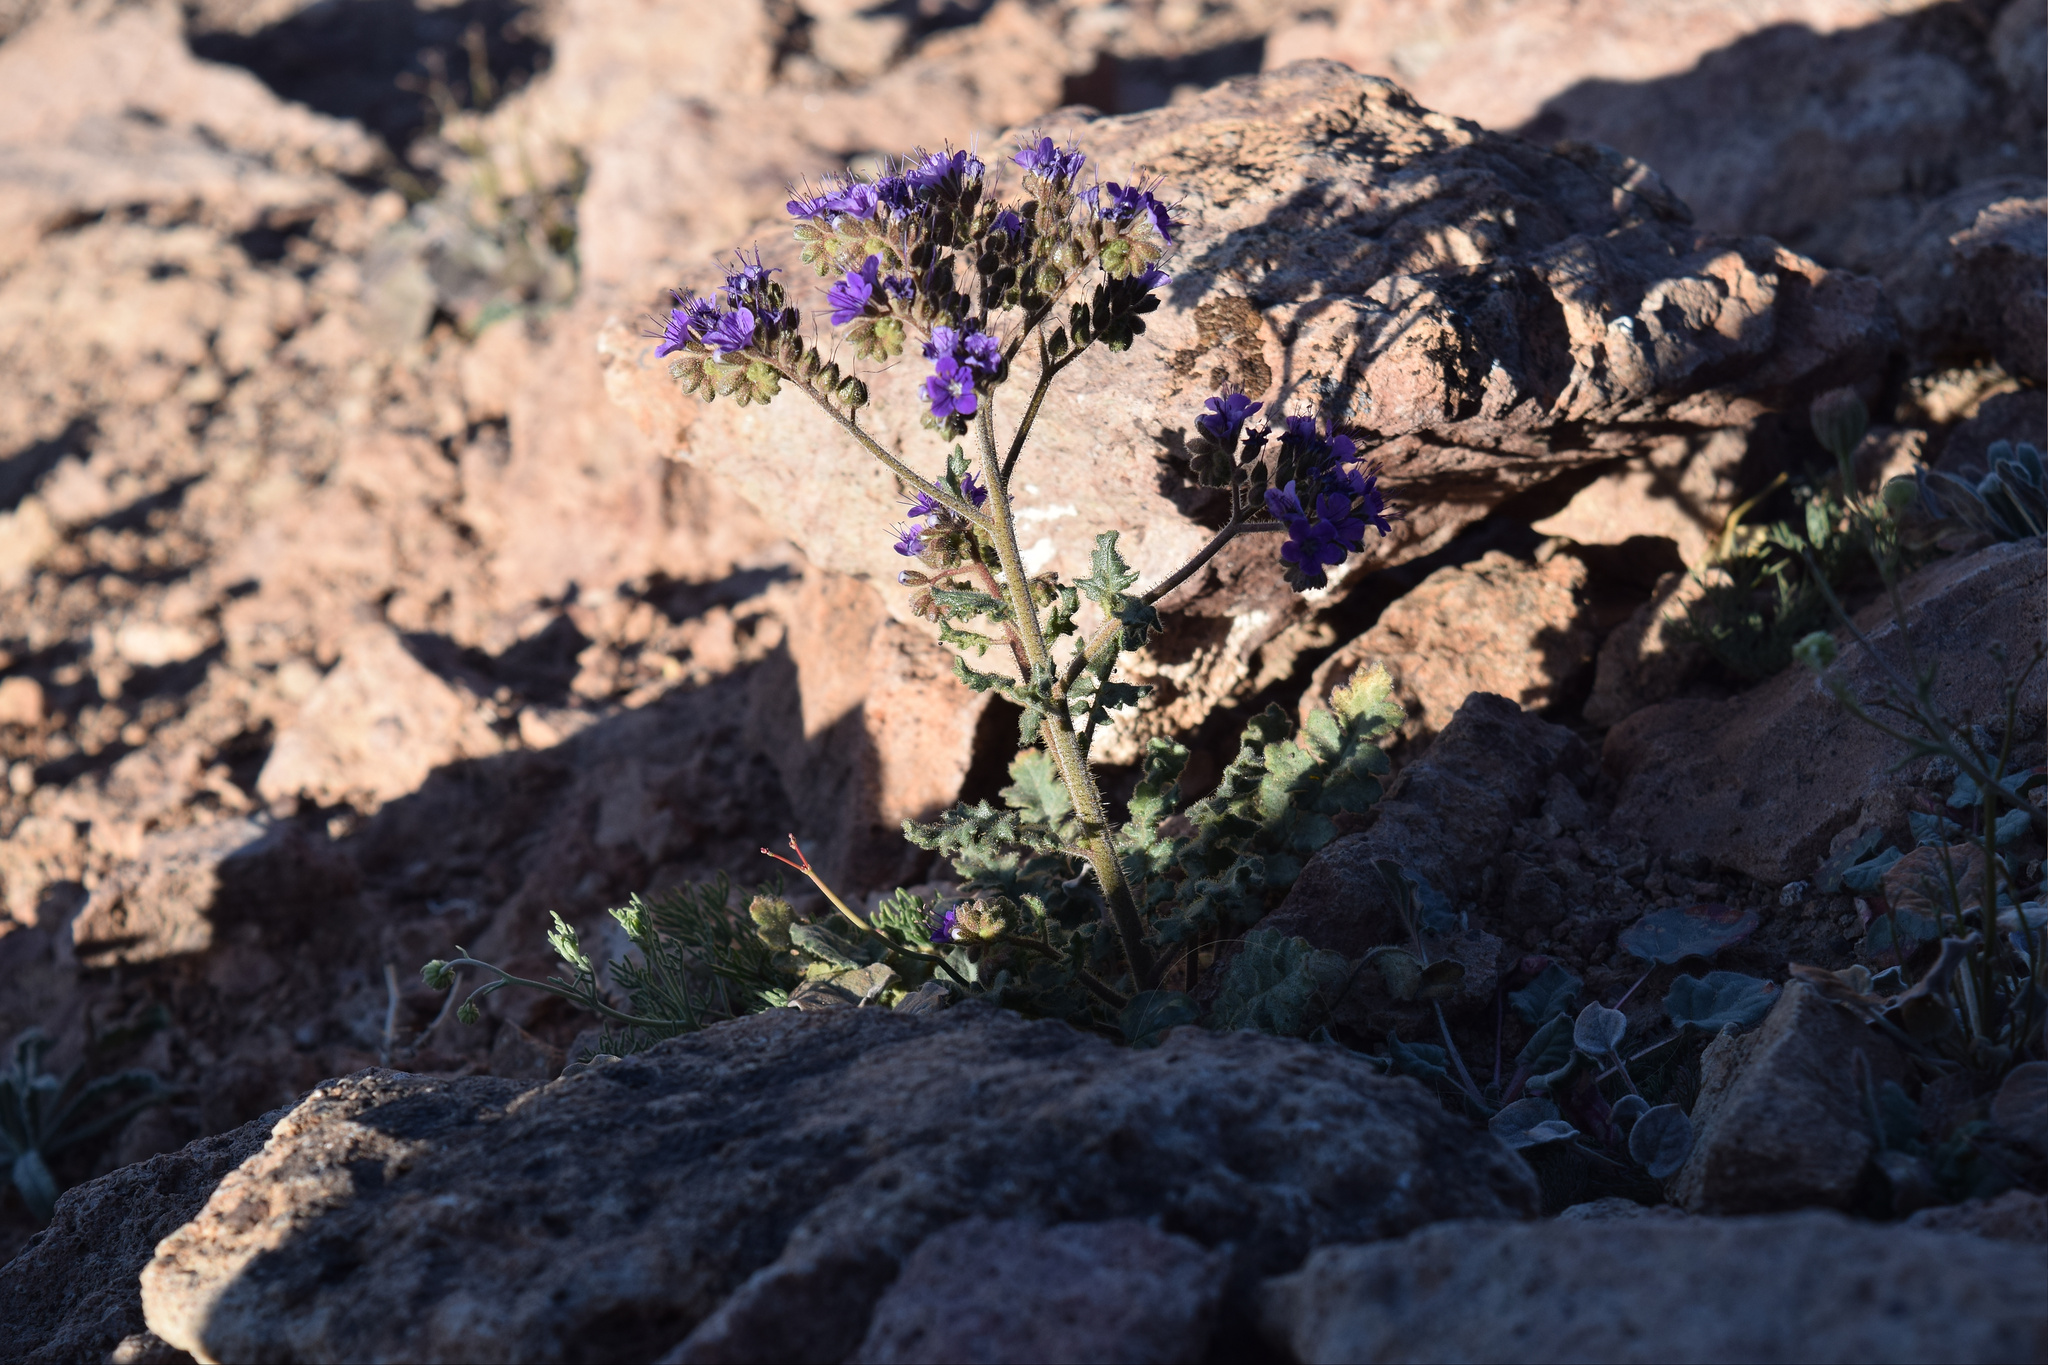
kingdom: Plantae
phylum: Tracheophyta
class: Magnoliopsida
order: Boraginales
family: Hydrophyllaceae
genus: Phacelia
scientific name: Phacelia crenulata
